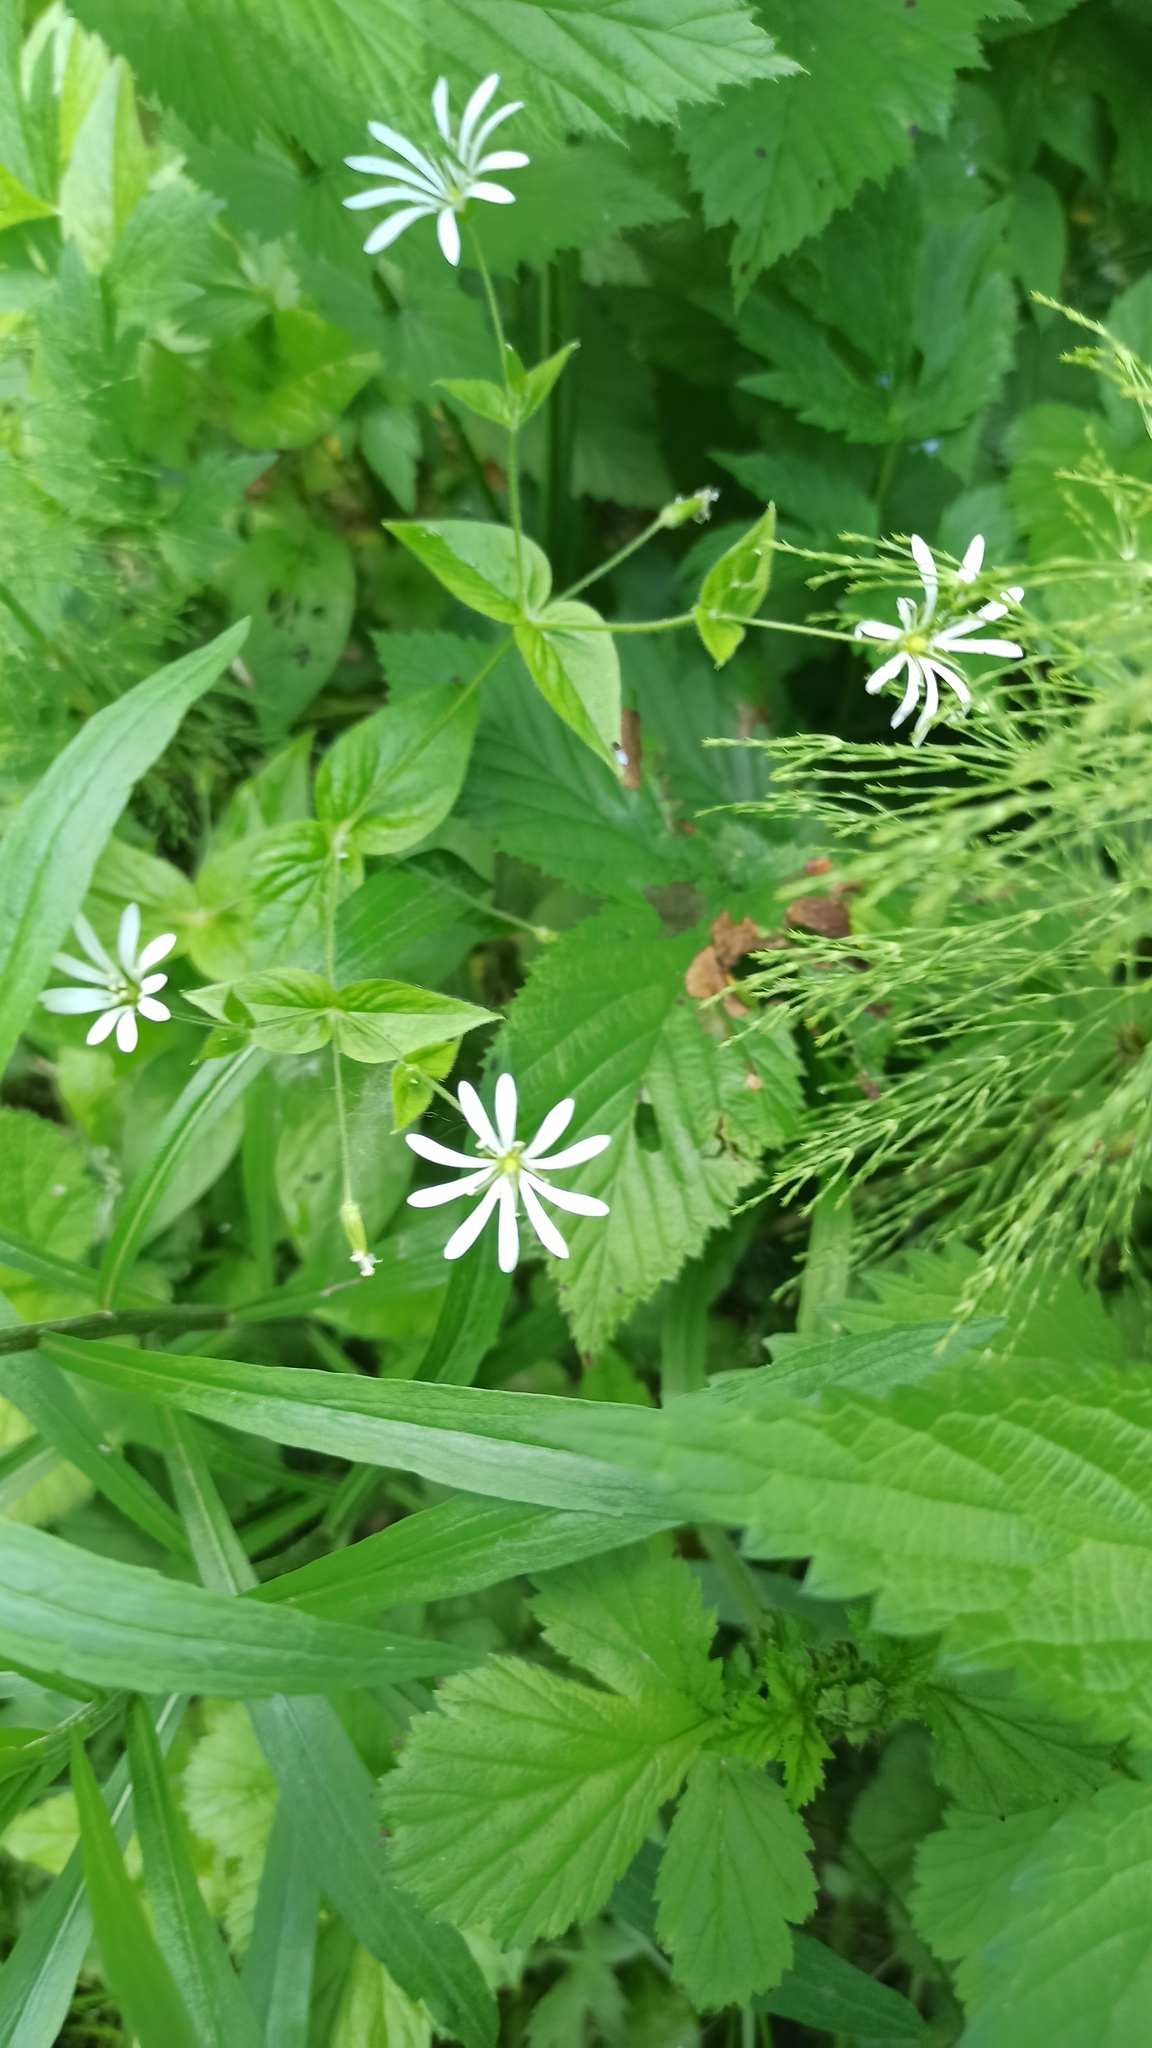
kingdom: Plantae
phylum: Tracheophyta
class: Magnoliopsida
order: Caryophyllales
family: Caryophyllaceae
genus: Stellaria
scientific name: Stellaria nemorum
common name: Wood stitchwort
